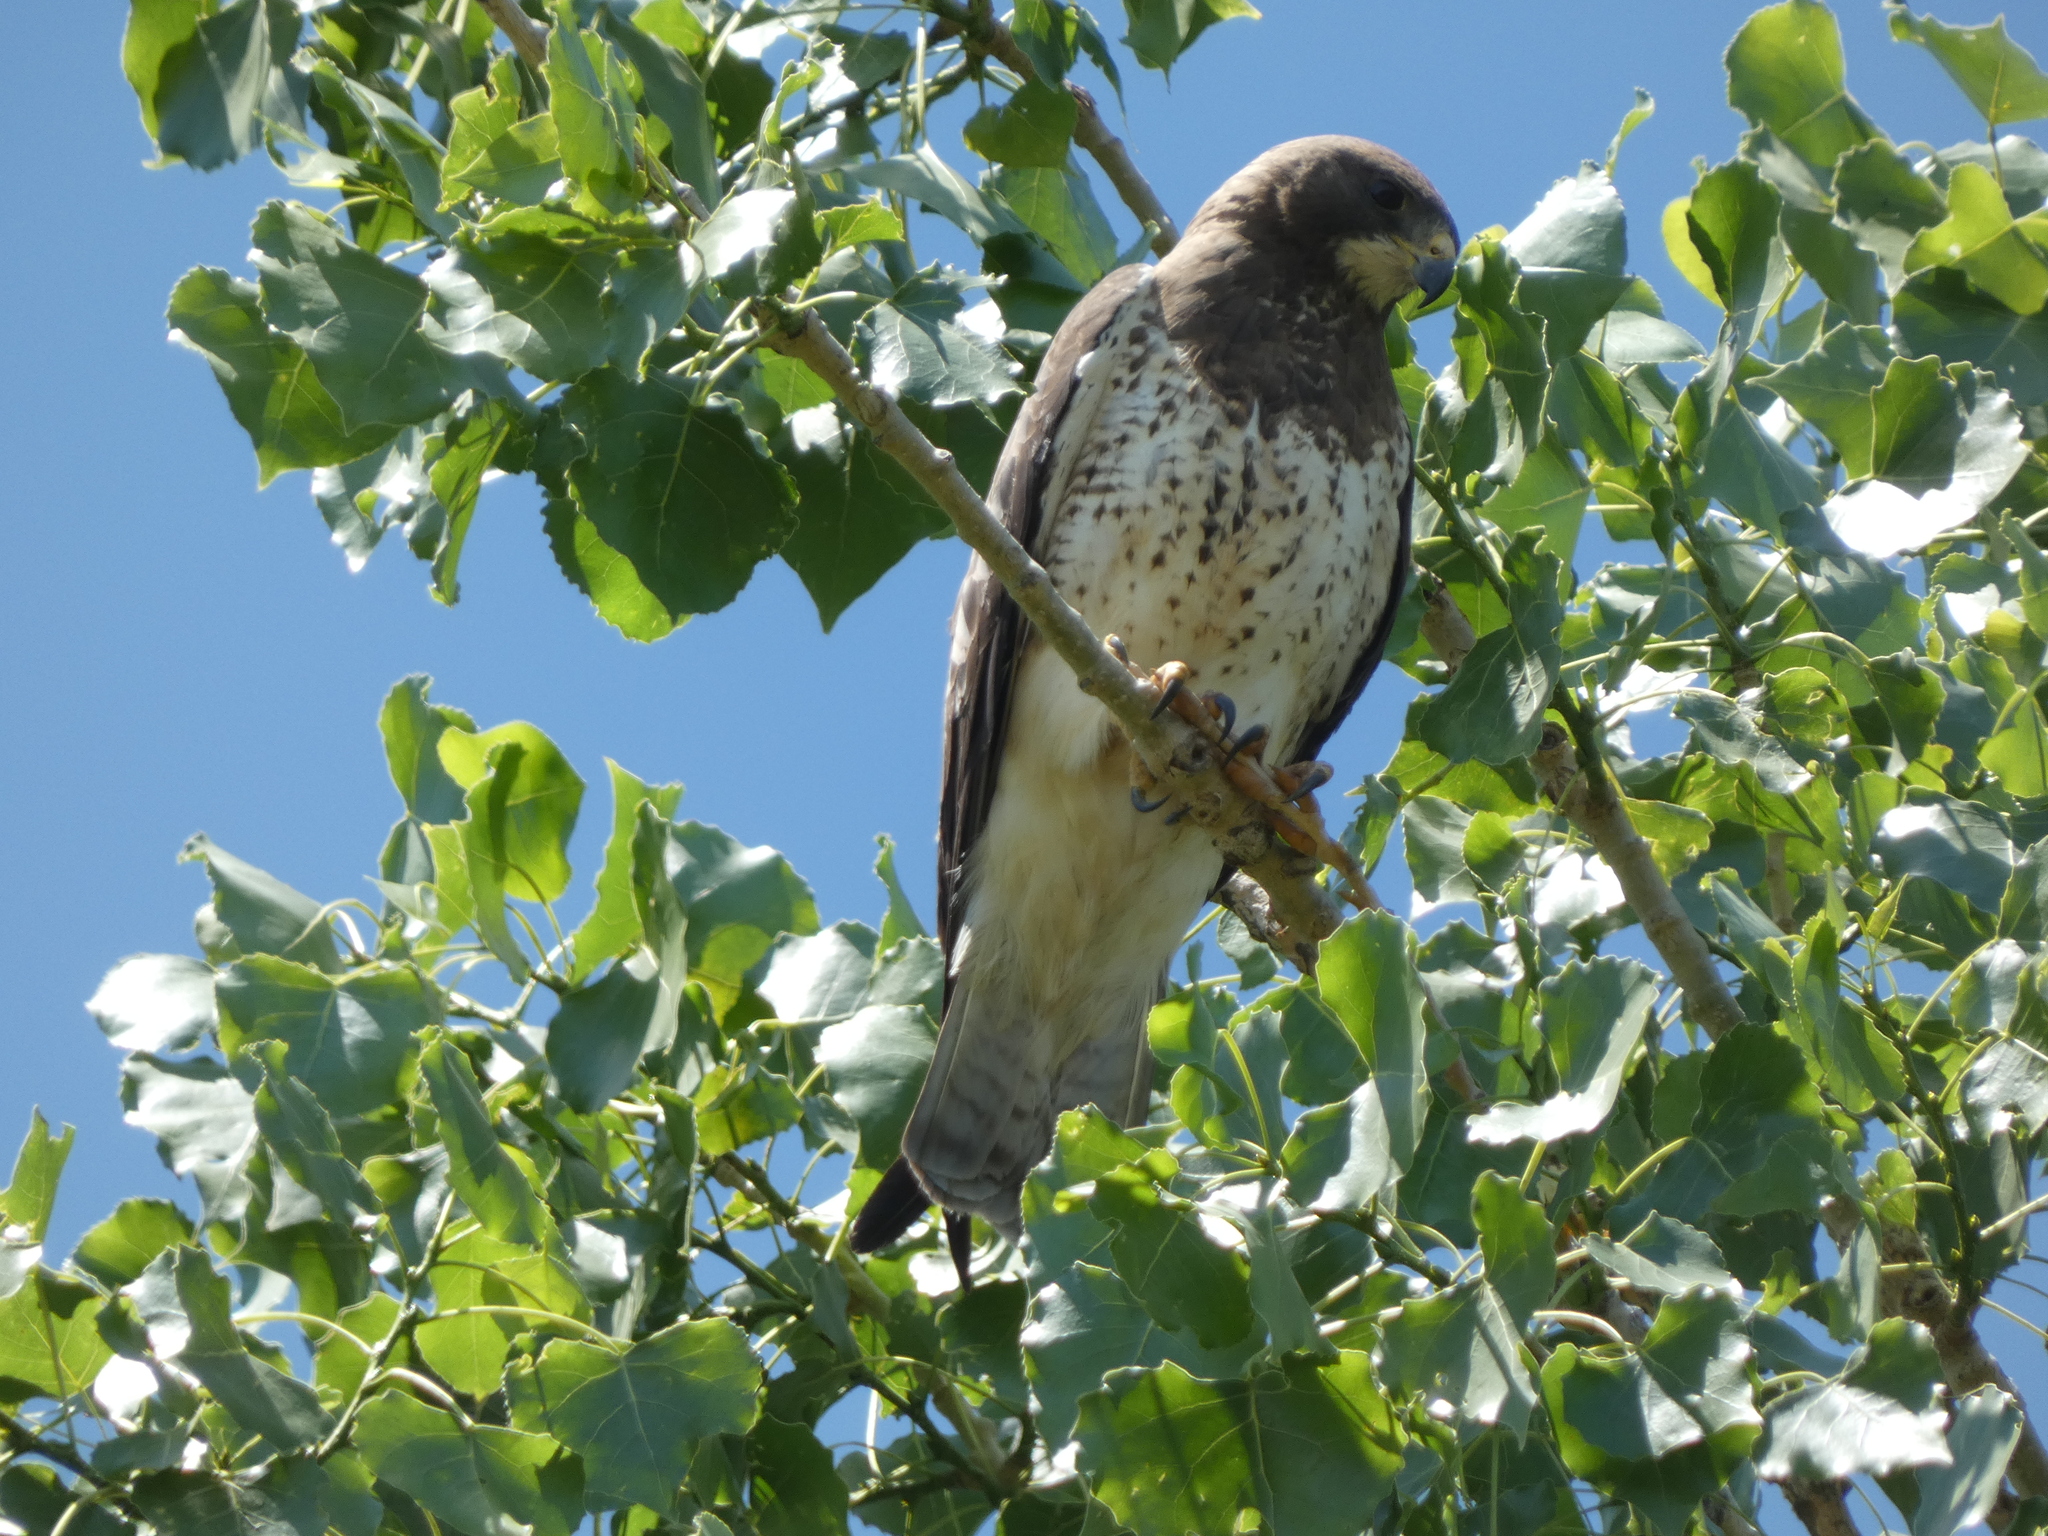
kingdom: Animalia
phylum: Chordata
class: Aves
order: Accipitriformes
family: Accipitridae
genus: Buteo
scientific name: Buteo swainsoni
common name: Swainson's hawk
